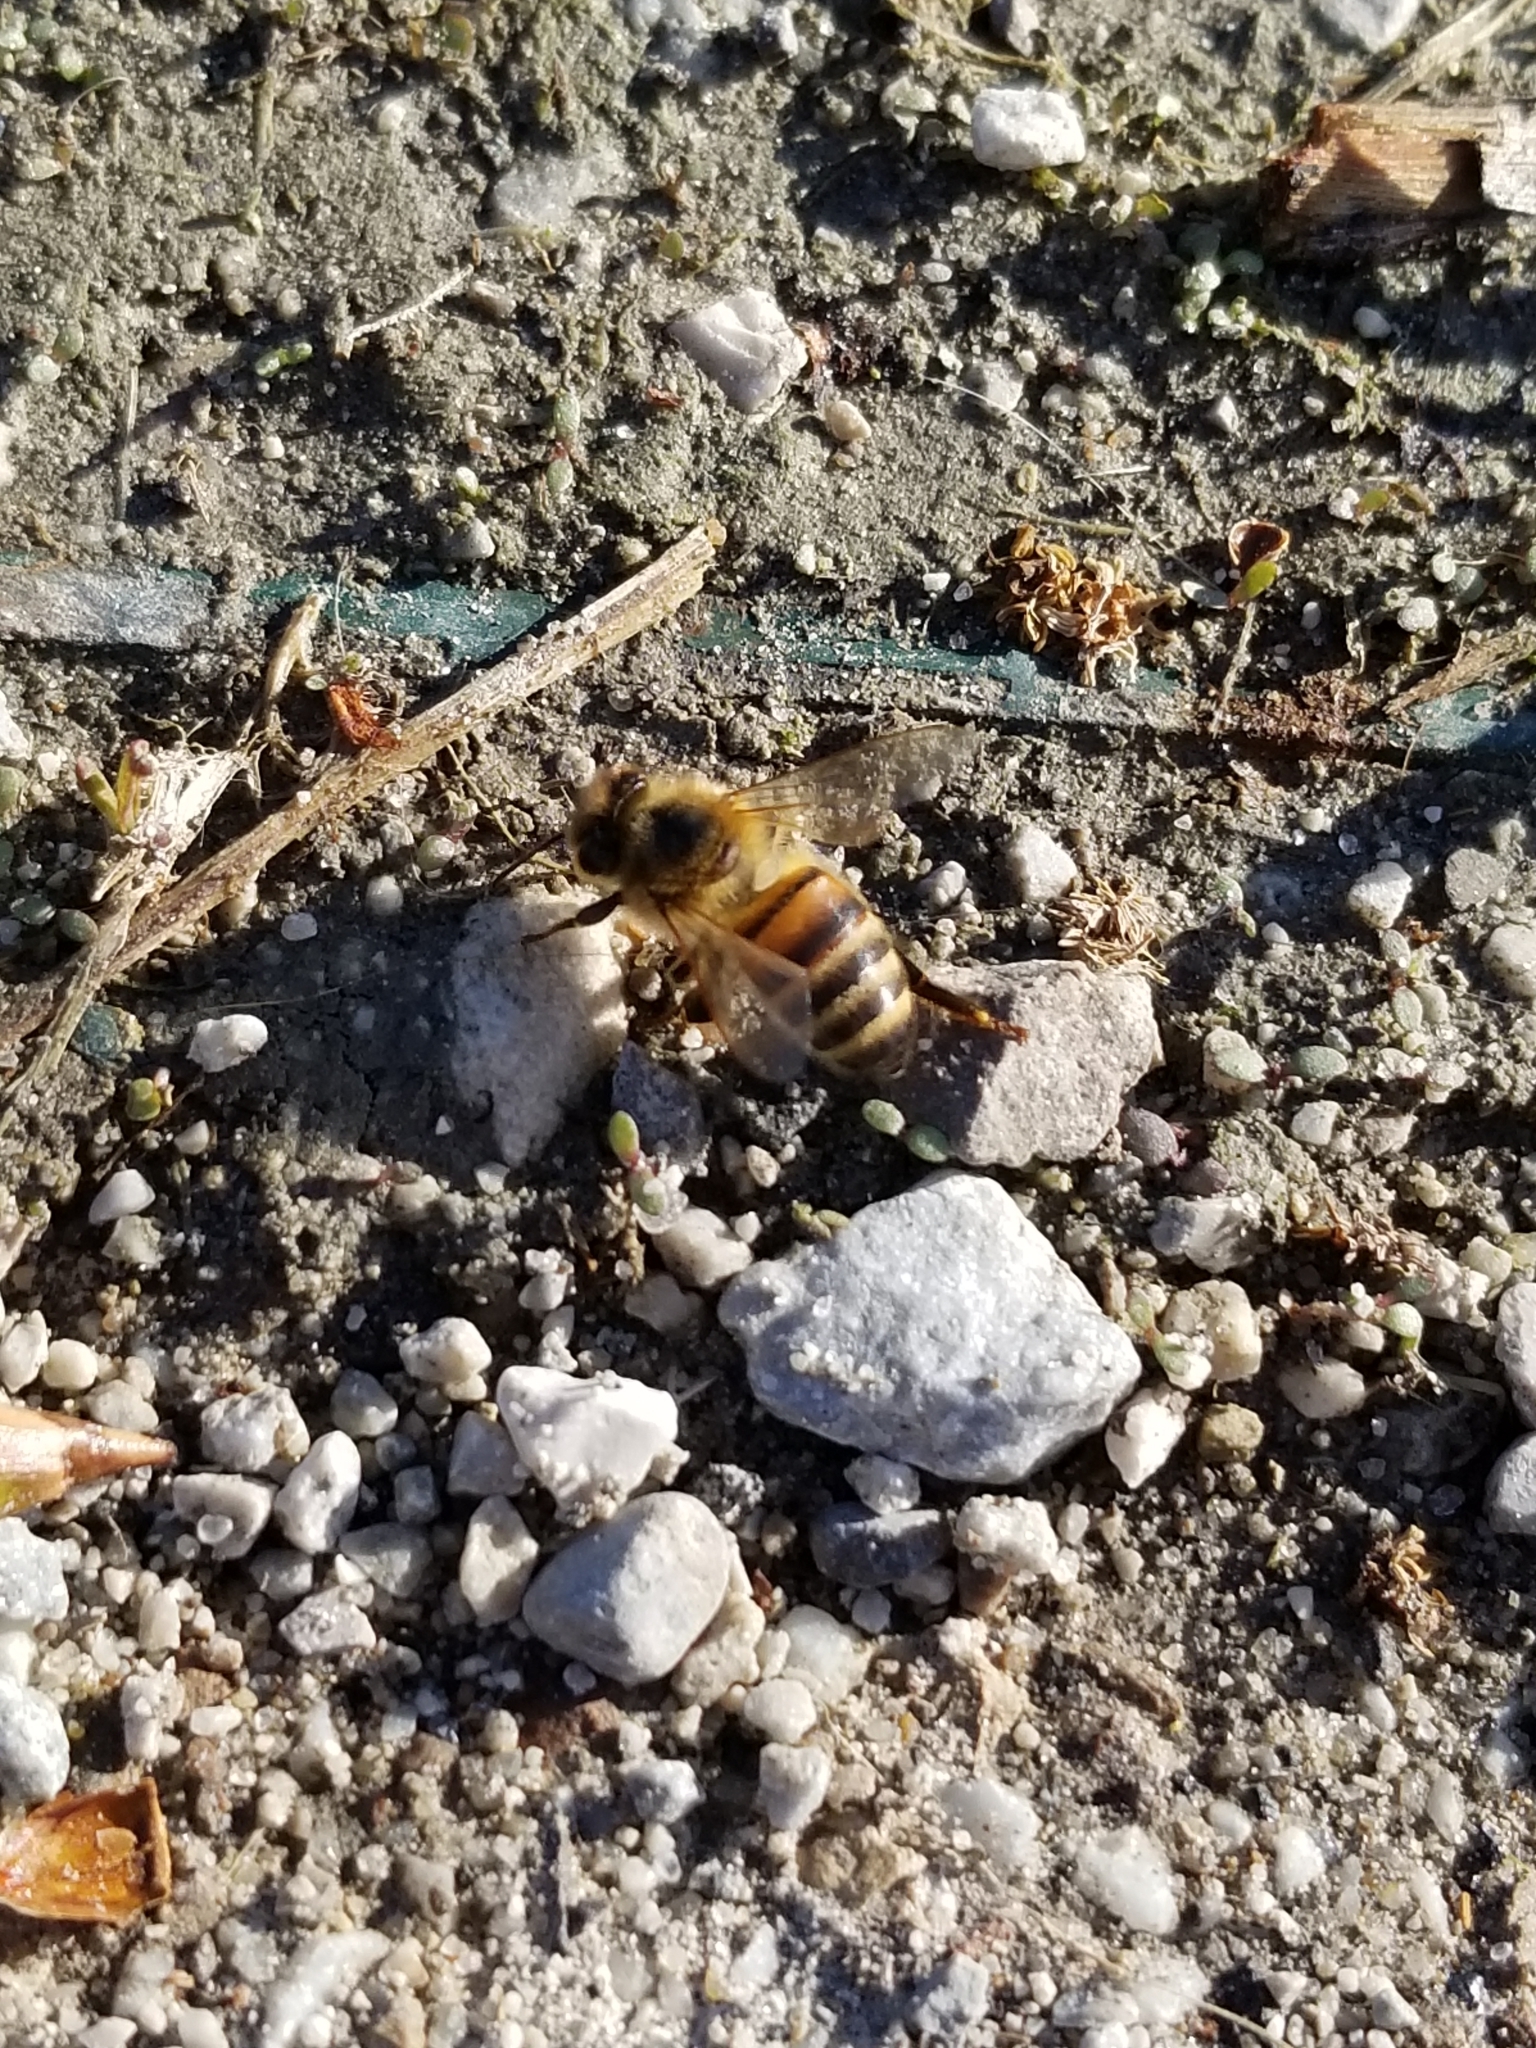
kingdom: Animalia
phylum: Arthropoda
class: Insecta
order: Hymenoptera
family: Apidae
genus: Apis
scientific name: Apis mellifera
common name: Honey bee
